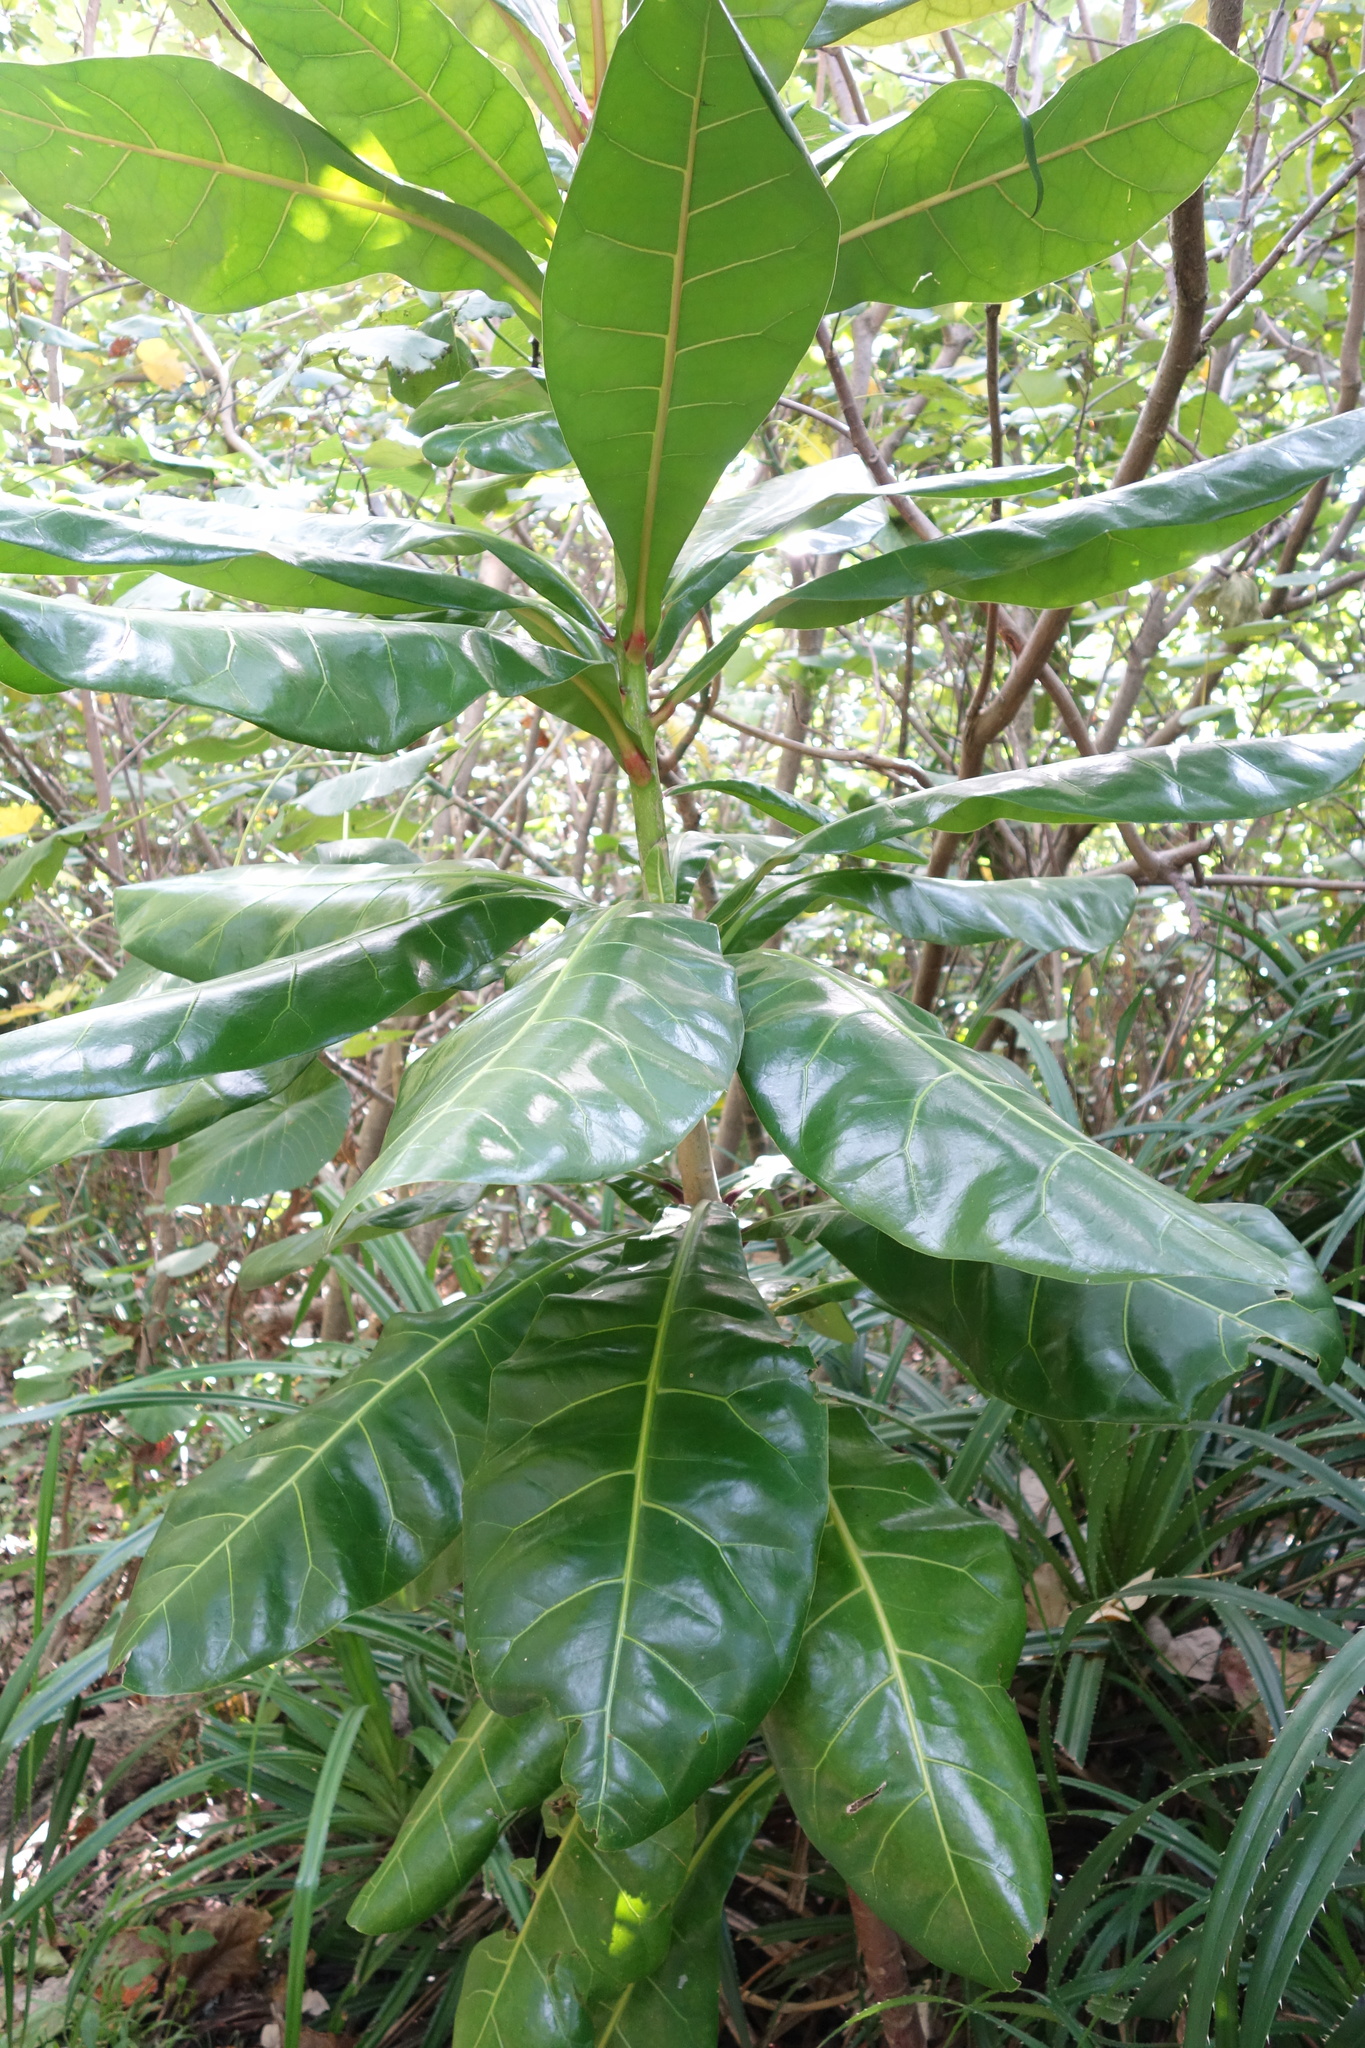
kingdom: Plantae
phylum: Tracheophyta
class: Magnoliopsida
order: Ericales
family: Lecythidaceae
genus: Barringtonia
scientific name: Barringtonia asiatica
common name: Mango-pine
